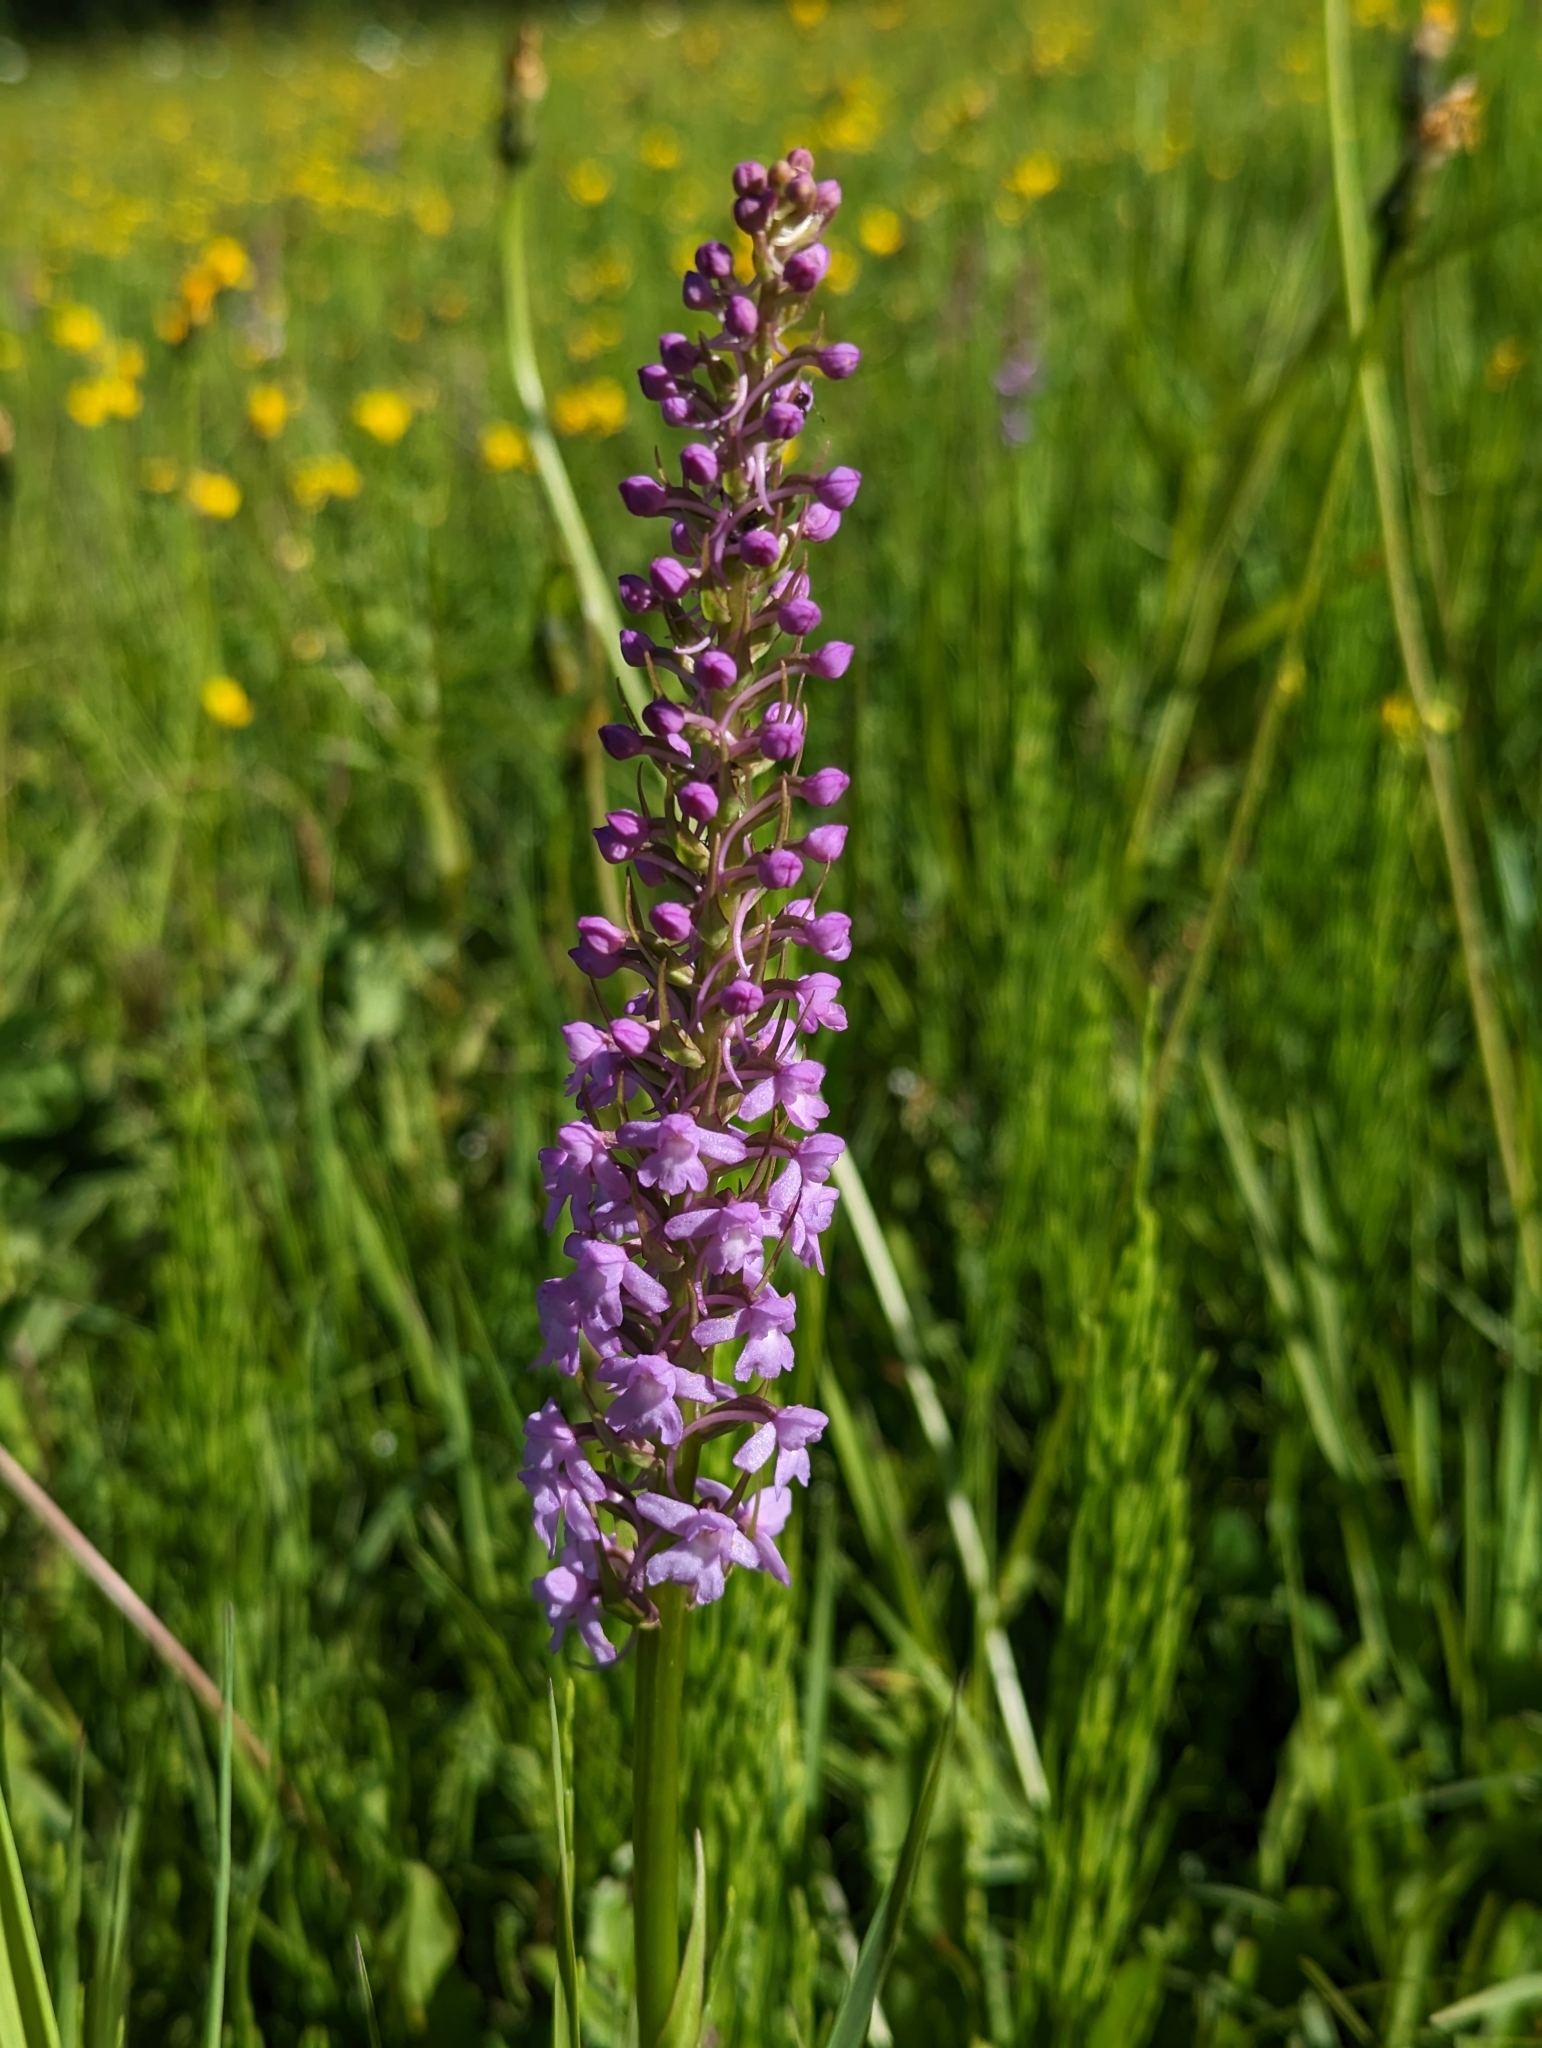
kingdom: Plantae
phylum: Tracheophyta
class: Liliopsida
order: Asparagales
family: Orchidaceae
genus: Gymnadenia
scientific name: Gymnadenia conopsea
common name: Fragrant orchid
